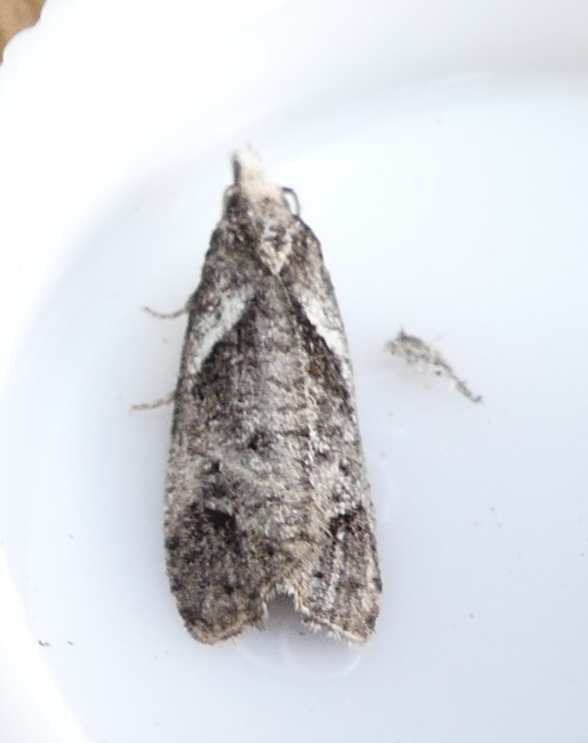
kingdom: Animalia
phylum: Arthropoda
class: Insecta
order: Lepidoptera
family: Tortricidae
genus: Phtheochroa
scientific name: Phtheochroa riscana
